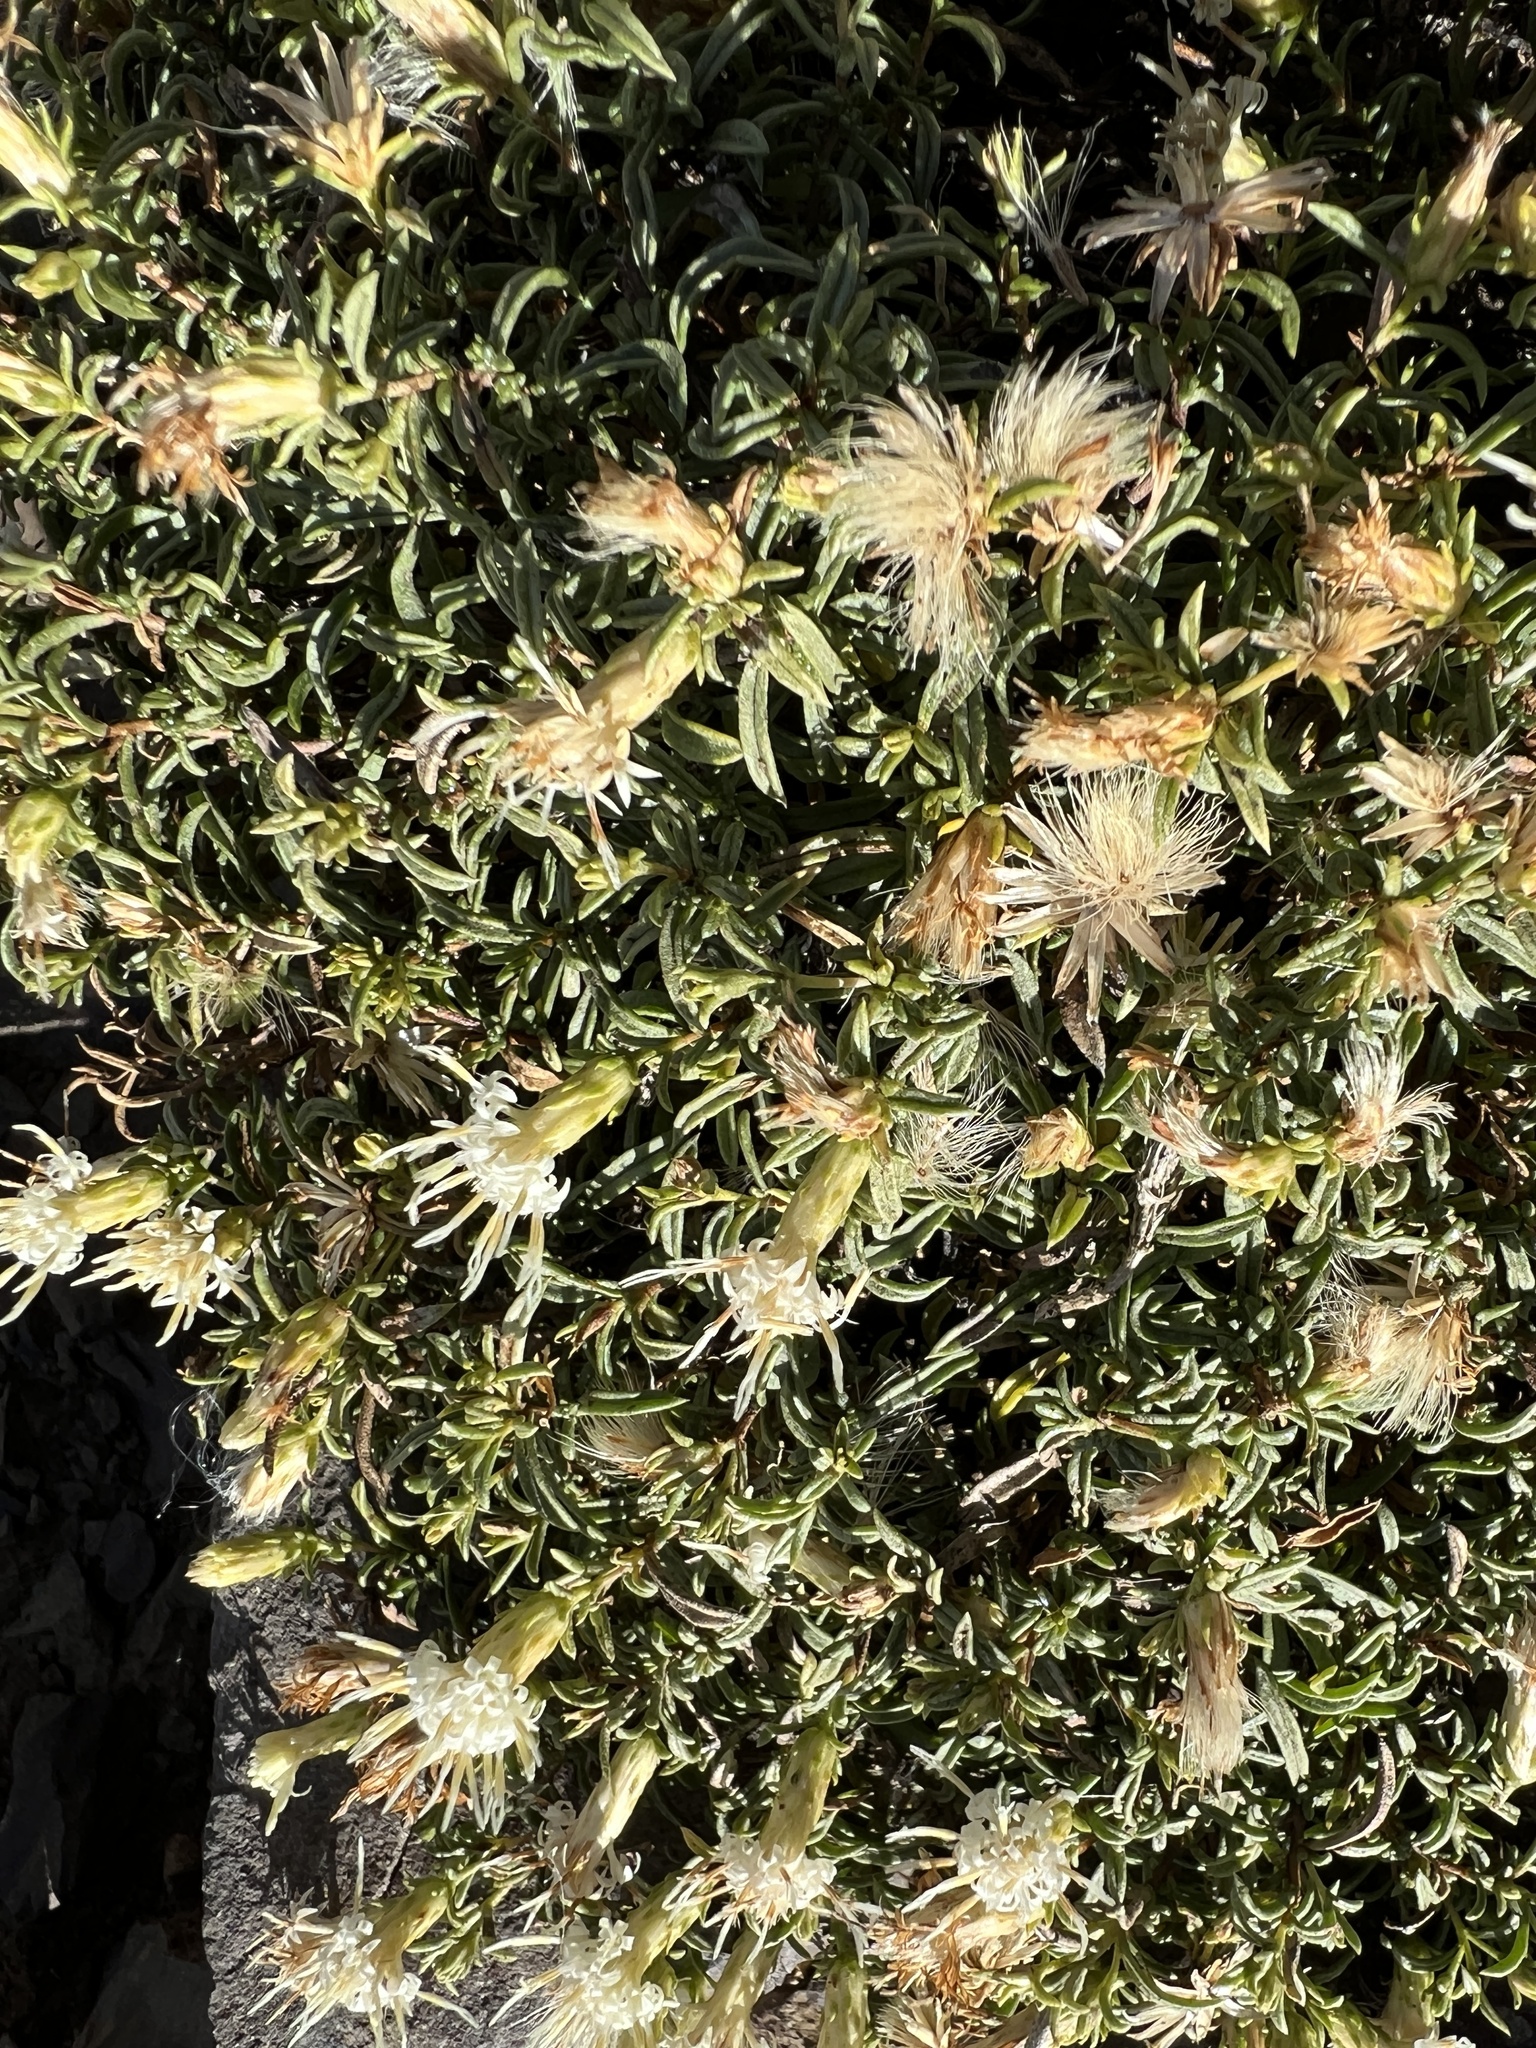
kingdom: Plantae
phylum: Tracheophyta
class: Magnoliopsida
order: Asterales
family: Asteraceae
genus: Ericameria
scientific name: Ericameria resinosa
